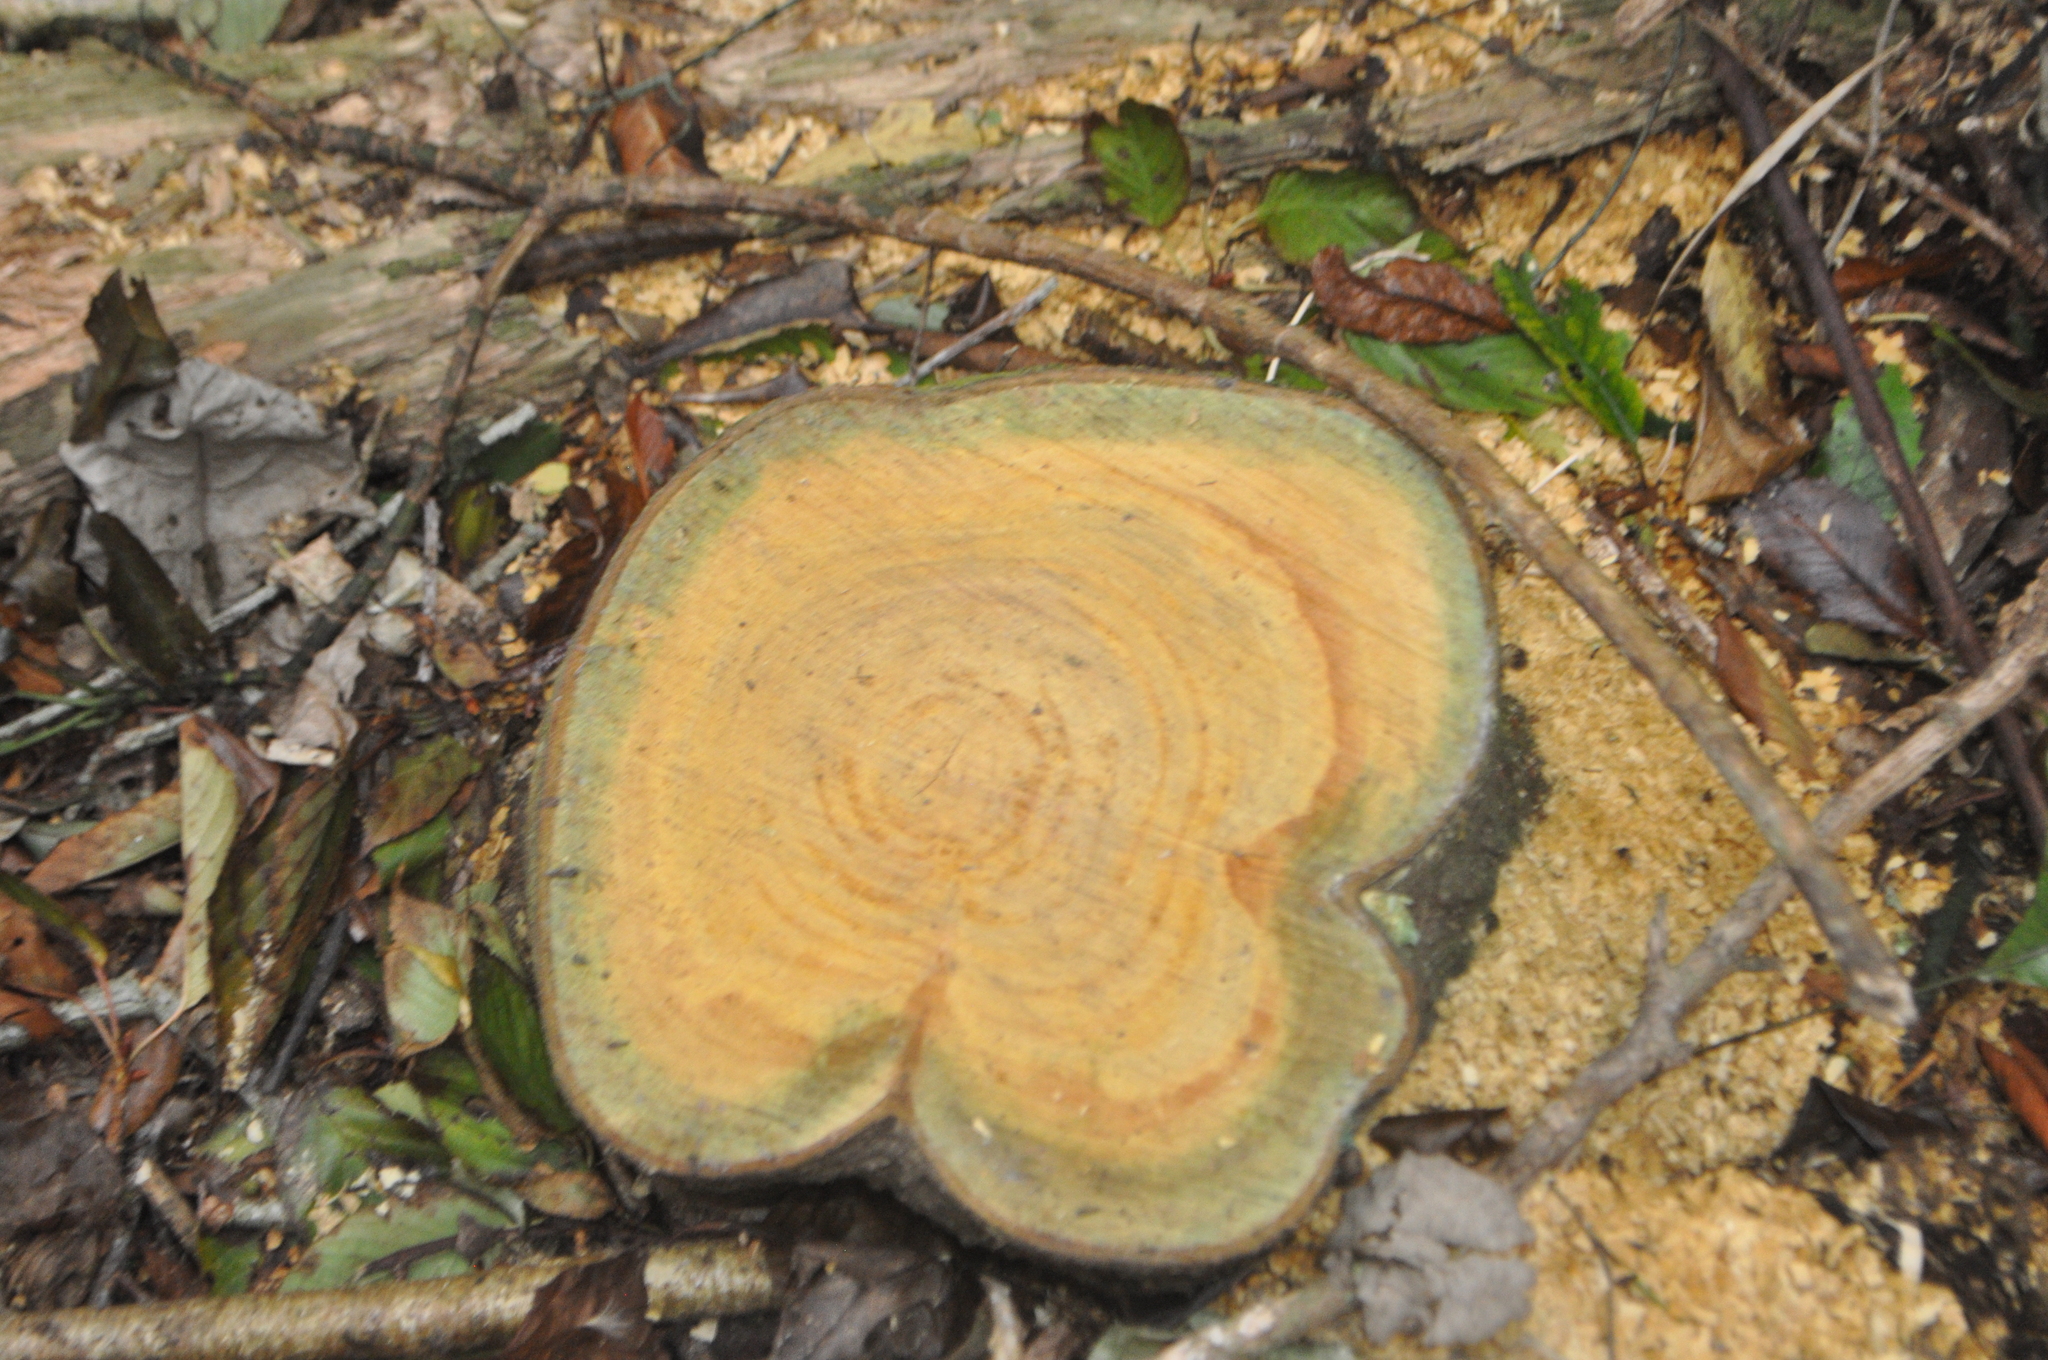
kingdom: Plantae
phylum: Tracheophyta
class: Magnoliopsida
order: Rosales
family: Rosaceae
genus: Prunus
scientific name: Prunus serrulata
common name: Japanese cherry
